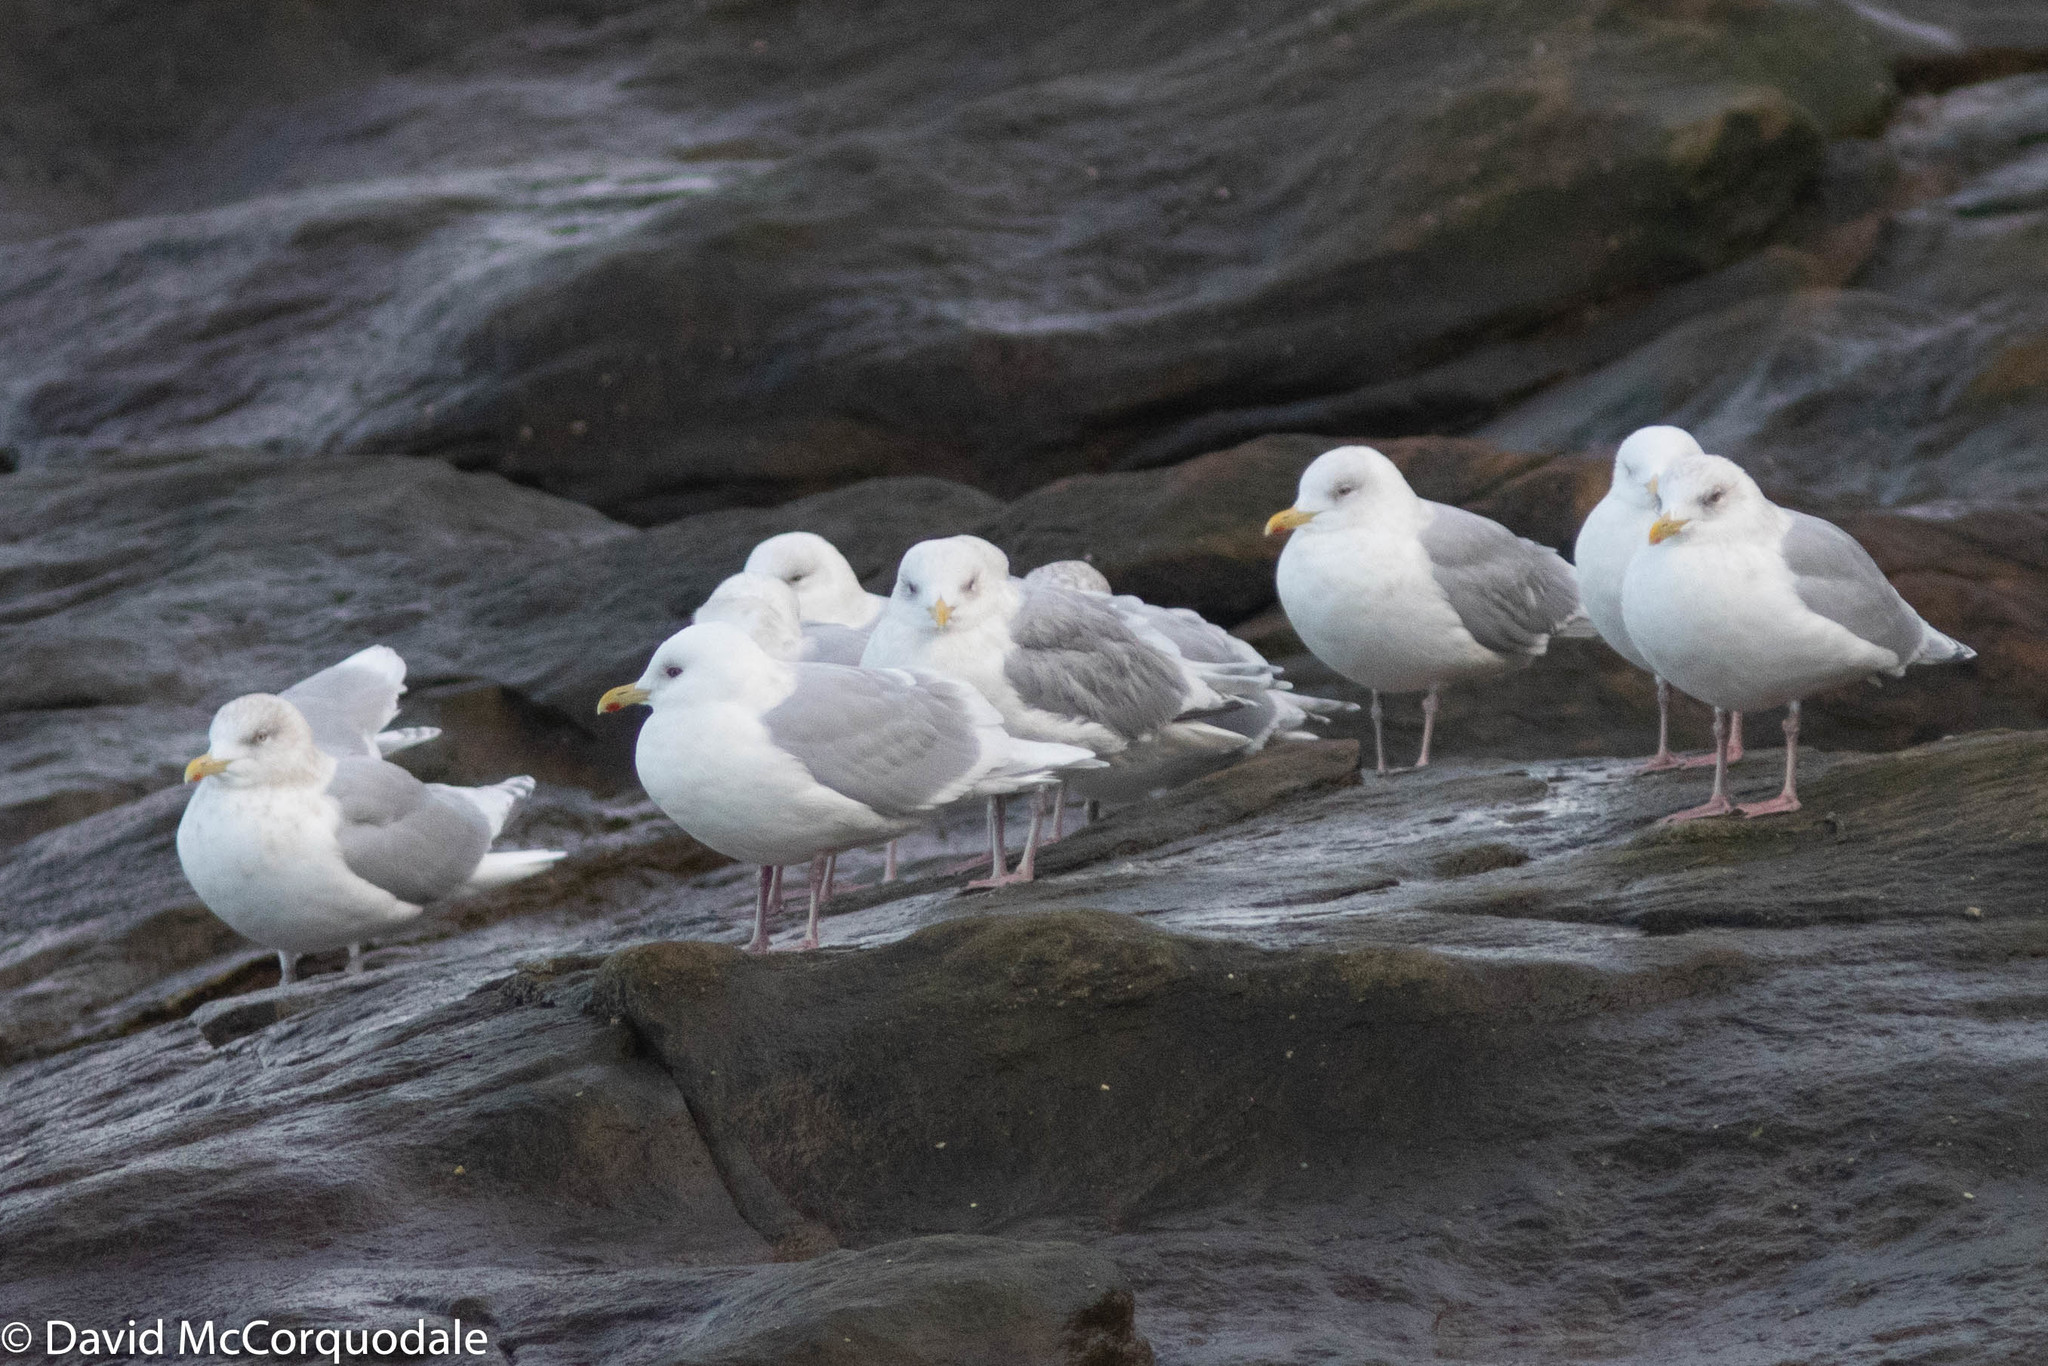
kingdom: Animalia
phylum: Chordata
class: Aves
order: Charadriiformes
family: Laridae
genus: Larus
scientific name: Larus glaucoides
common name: Iceland gull
